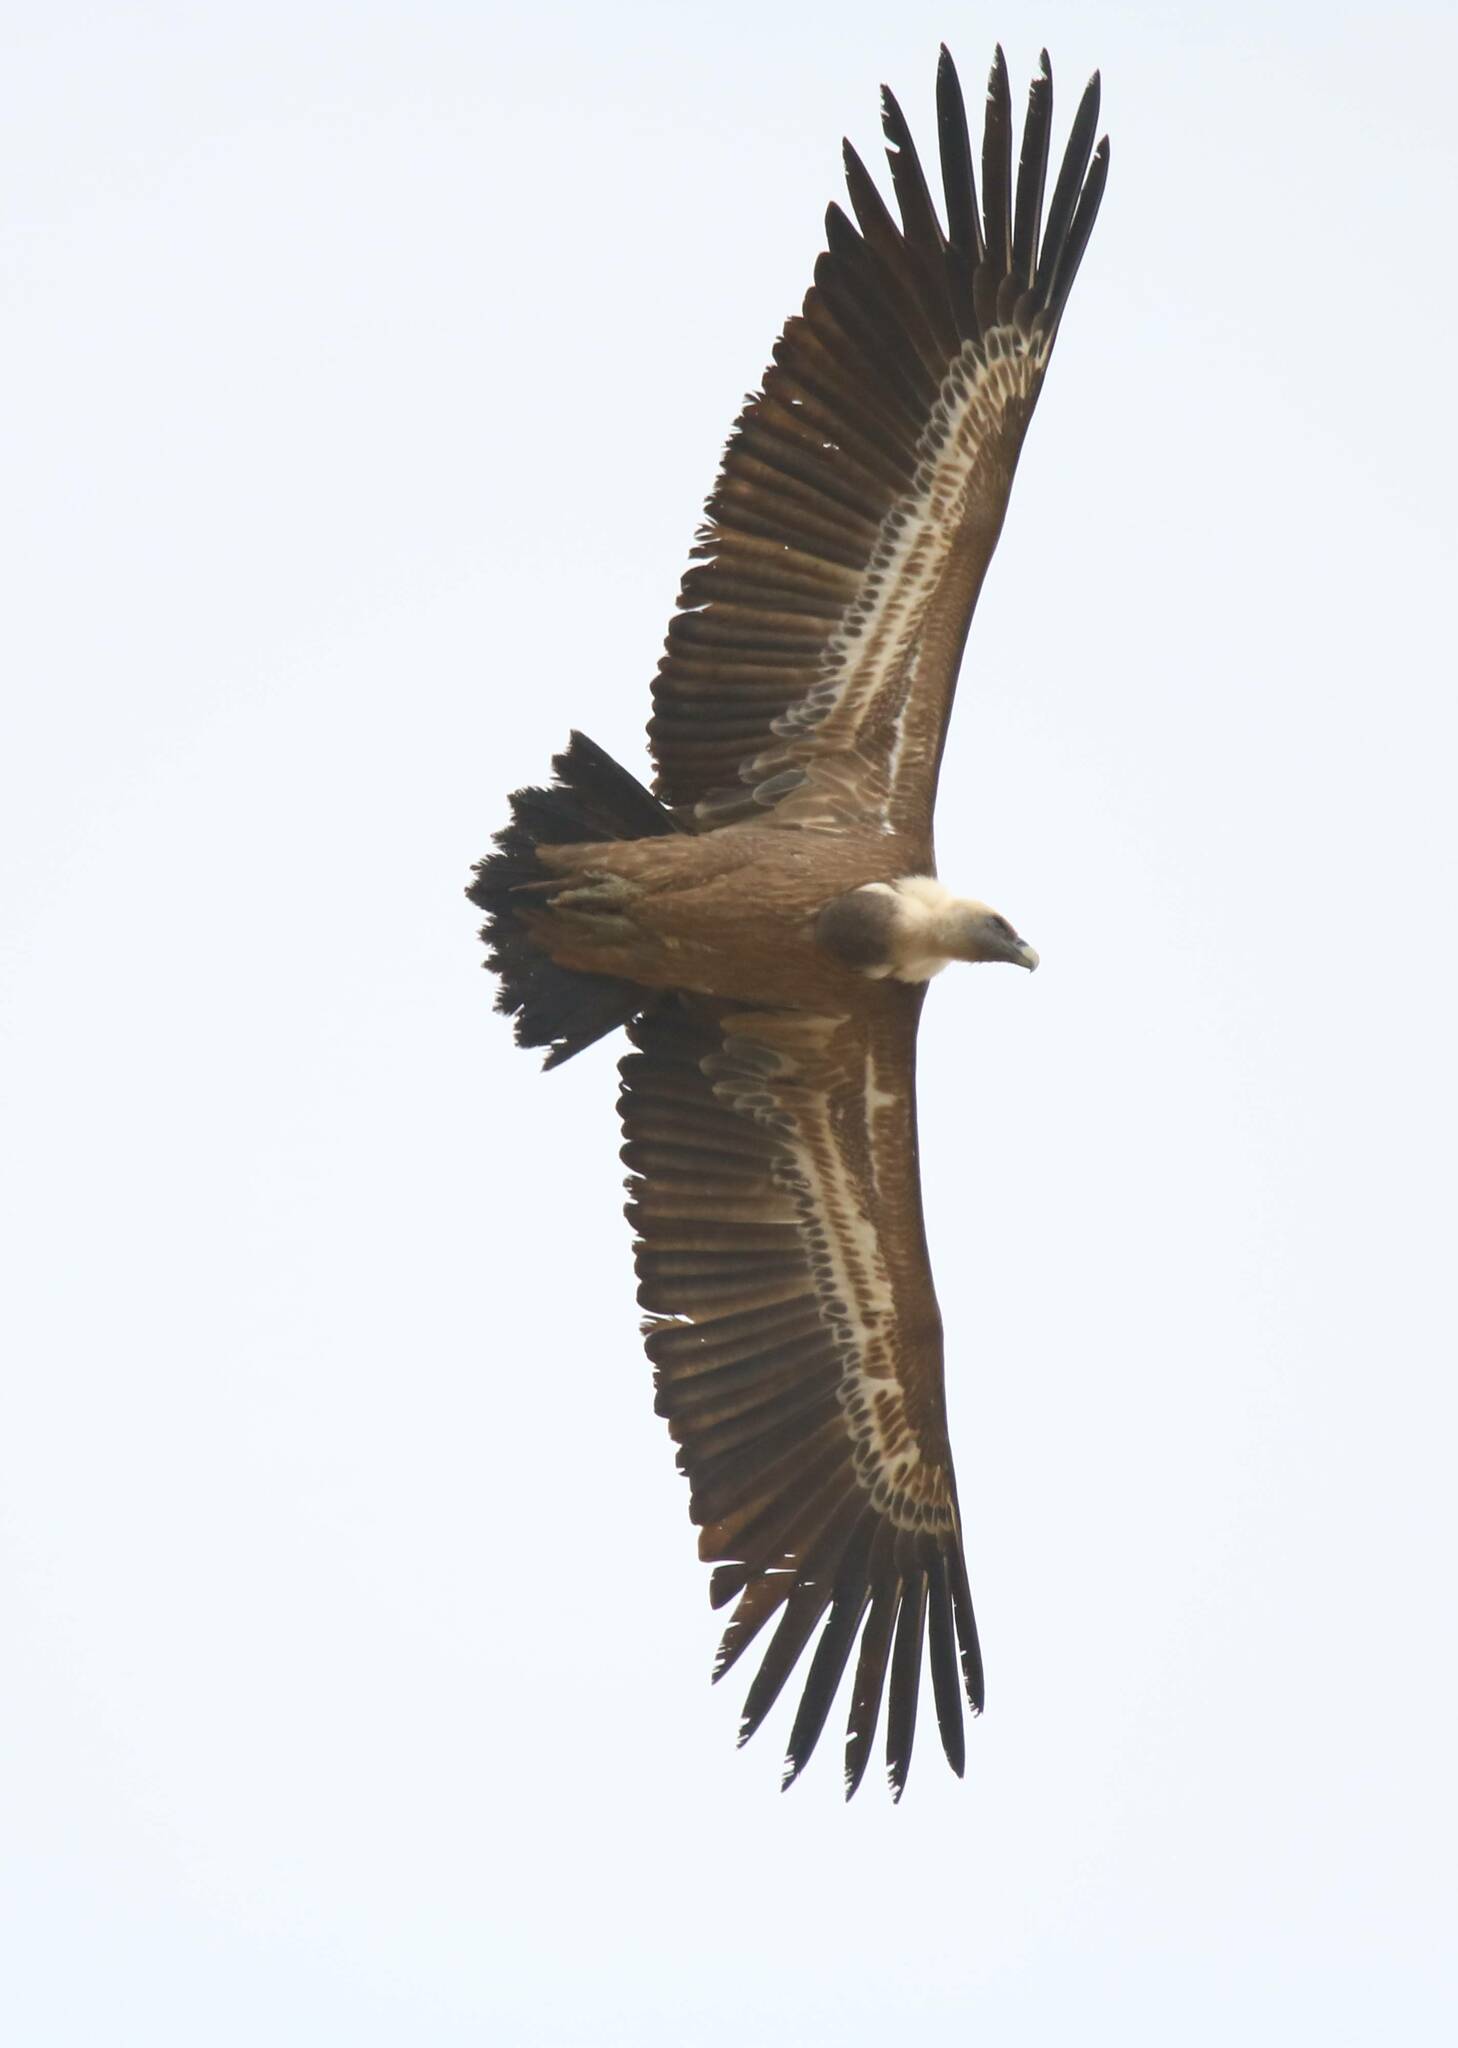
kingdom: Animalia
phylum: Chordata
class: Aves
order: Accipitriformes
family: Accipitridae
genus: Gyps
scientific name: Gyps fulvus
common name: Griffon vulture
